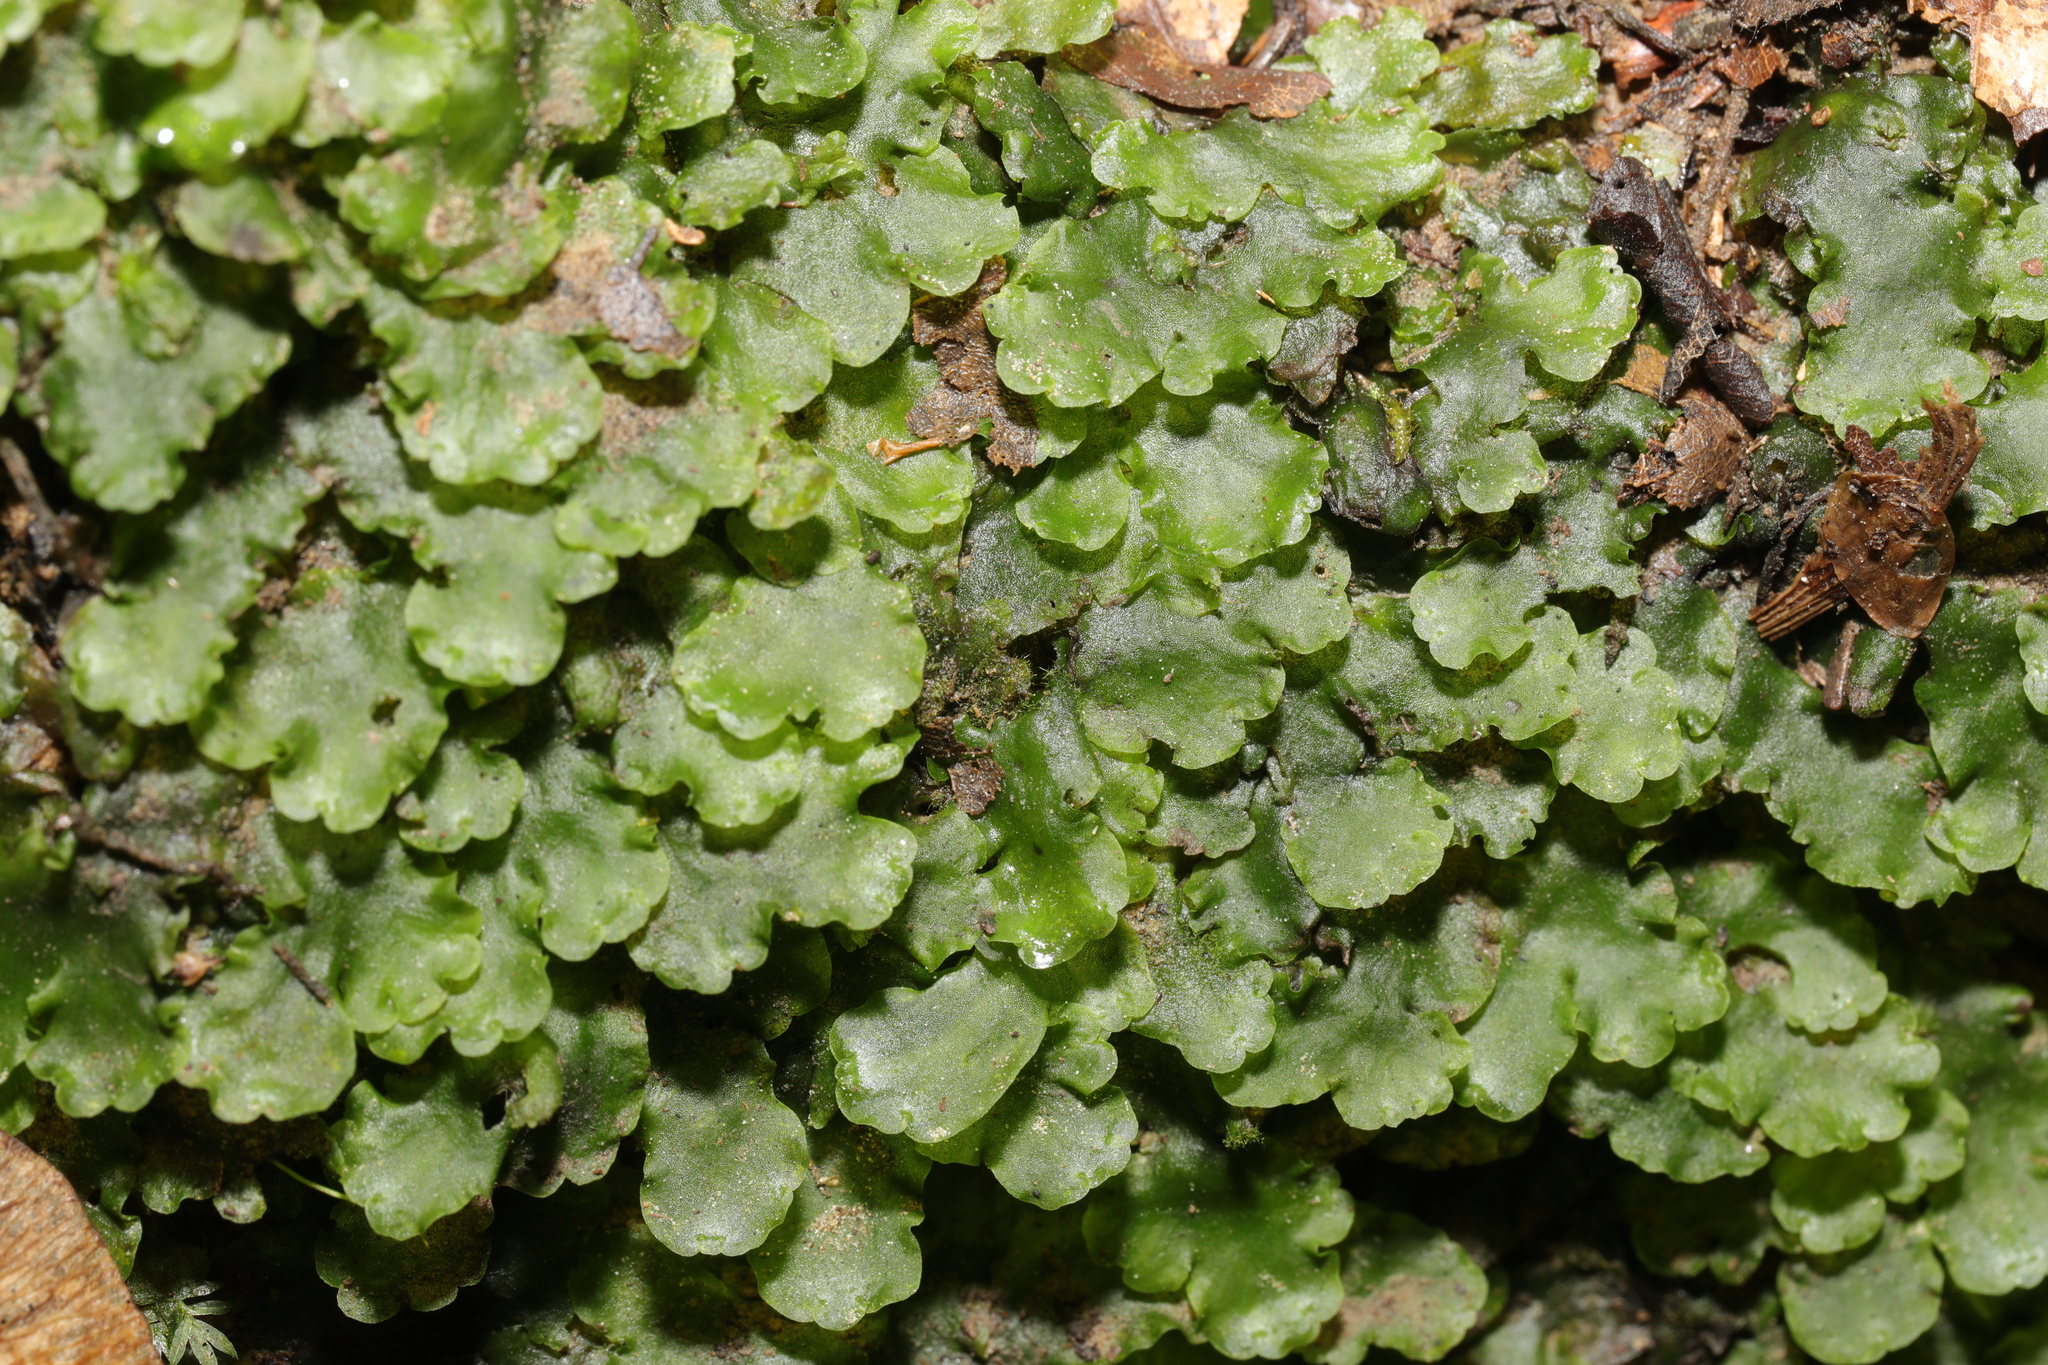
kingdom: Plantae
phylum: Marchantiophyta
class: Jungermanniopsida
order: Pelliales
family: Pelliaceae
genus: Pellia
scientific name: Pellia epiphylla
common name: Common pellia
